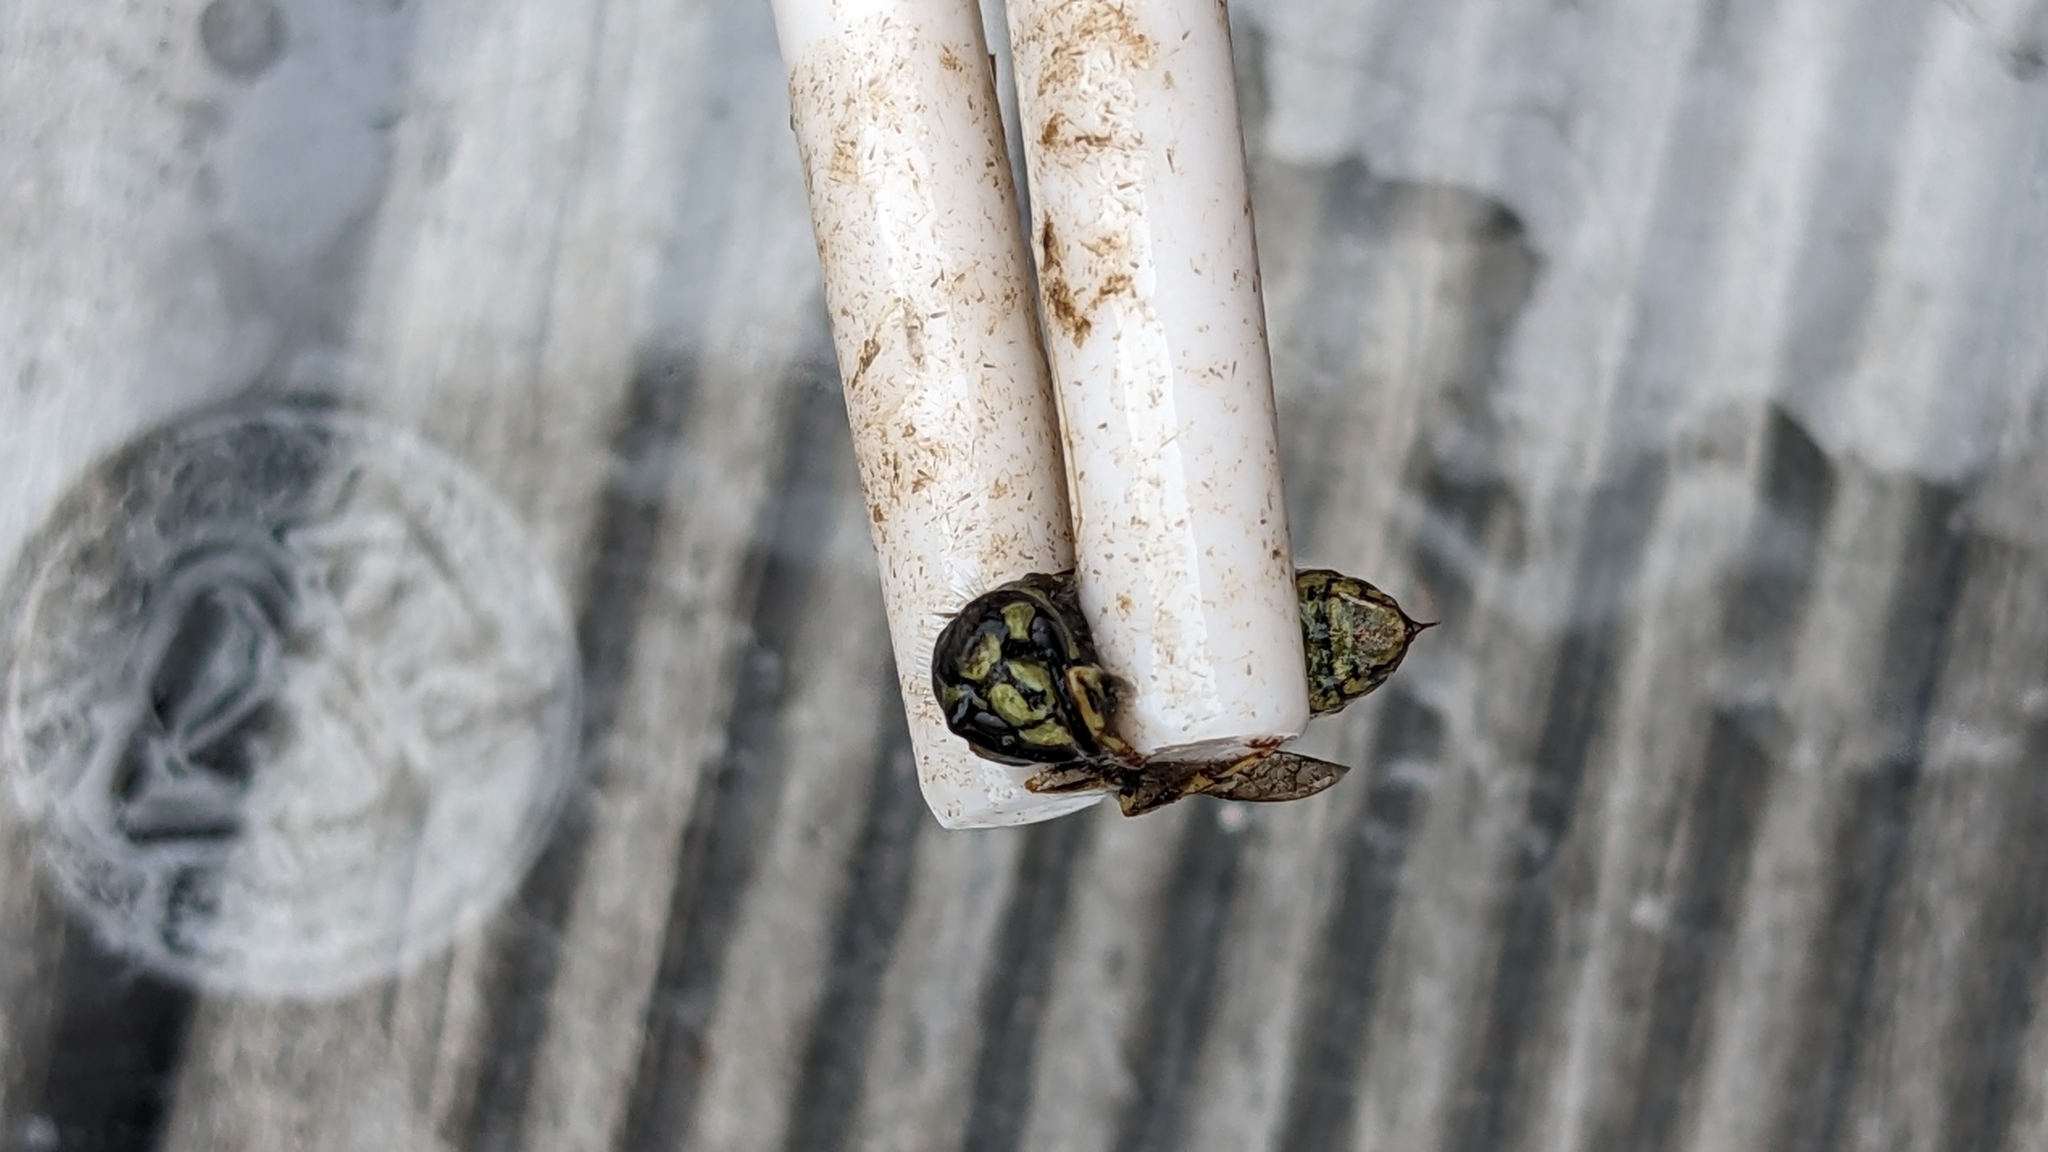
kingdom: Animalia
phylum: Arthropoda
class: Insecta
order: Hymenoptera
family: Vespidae
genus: Vespula
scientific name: Vespula vulgaris
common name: Common wasp
